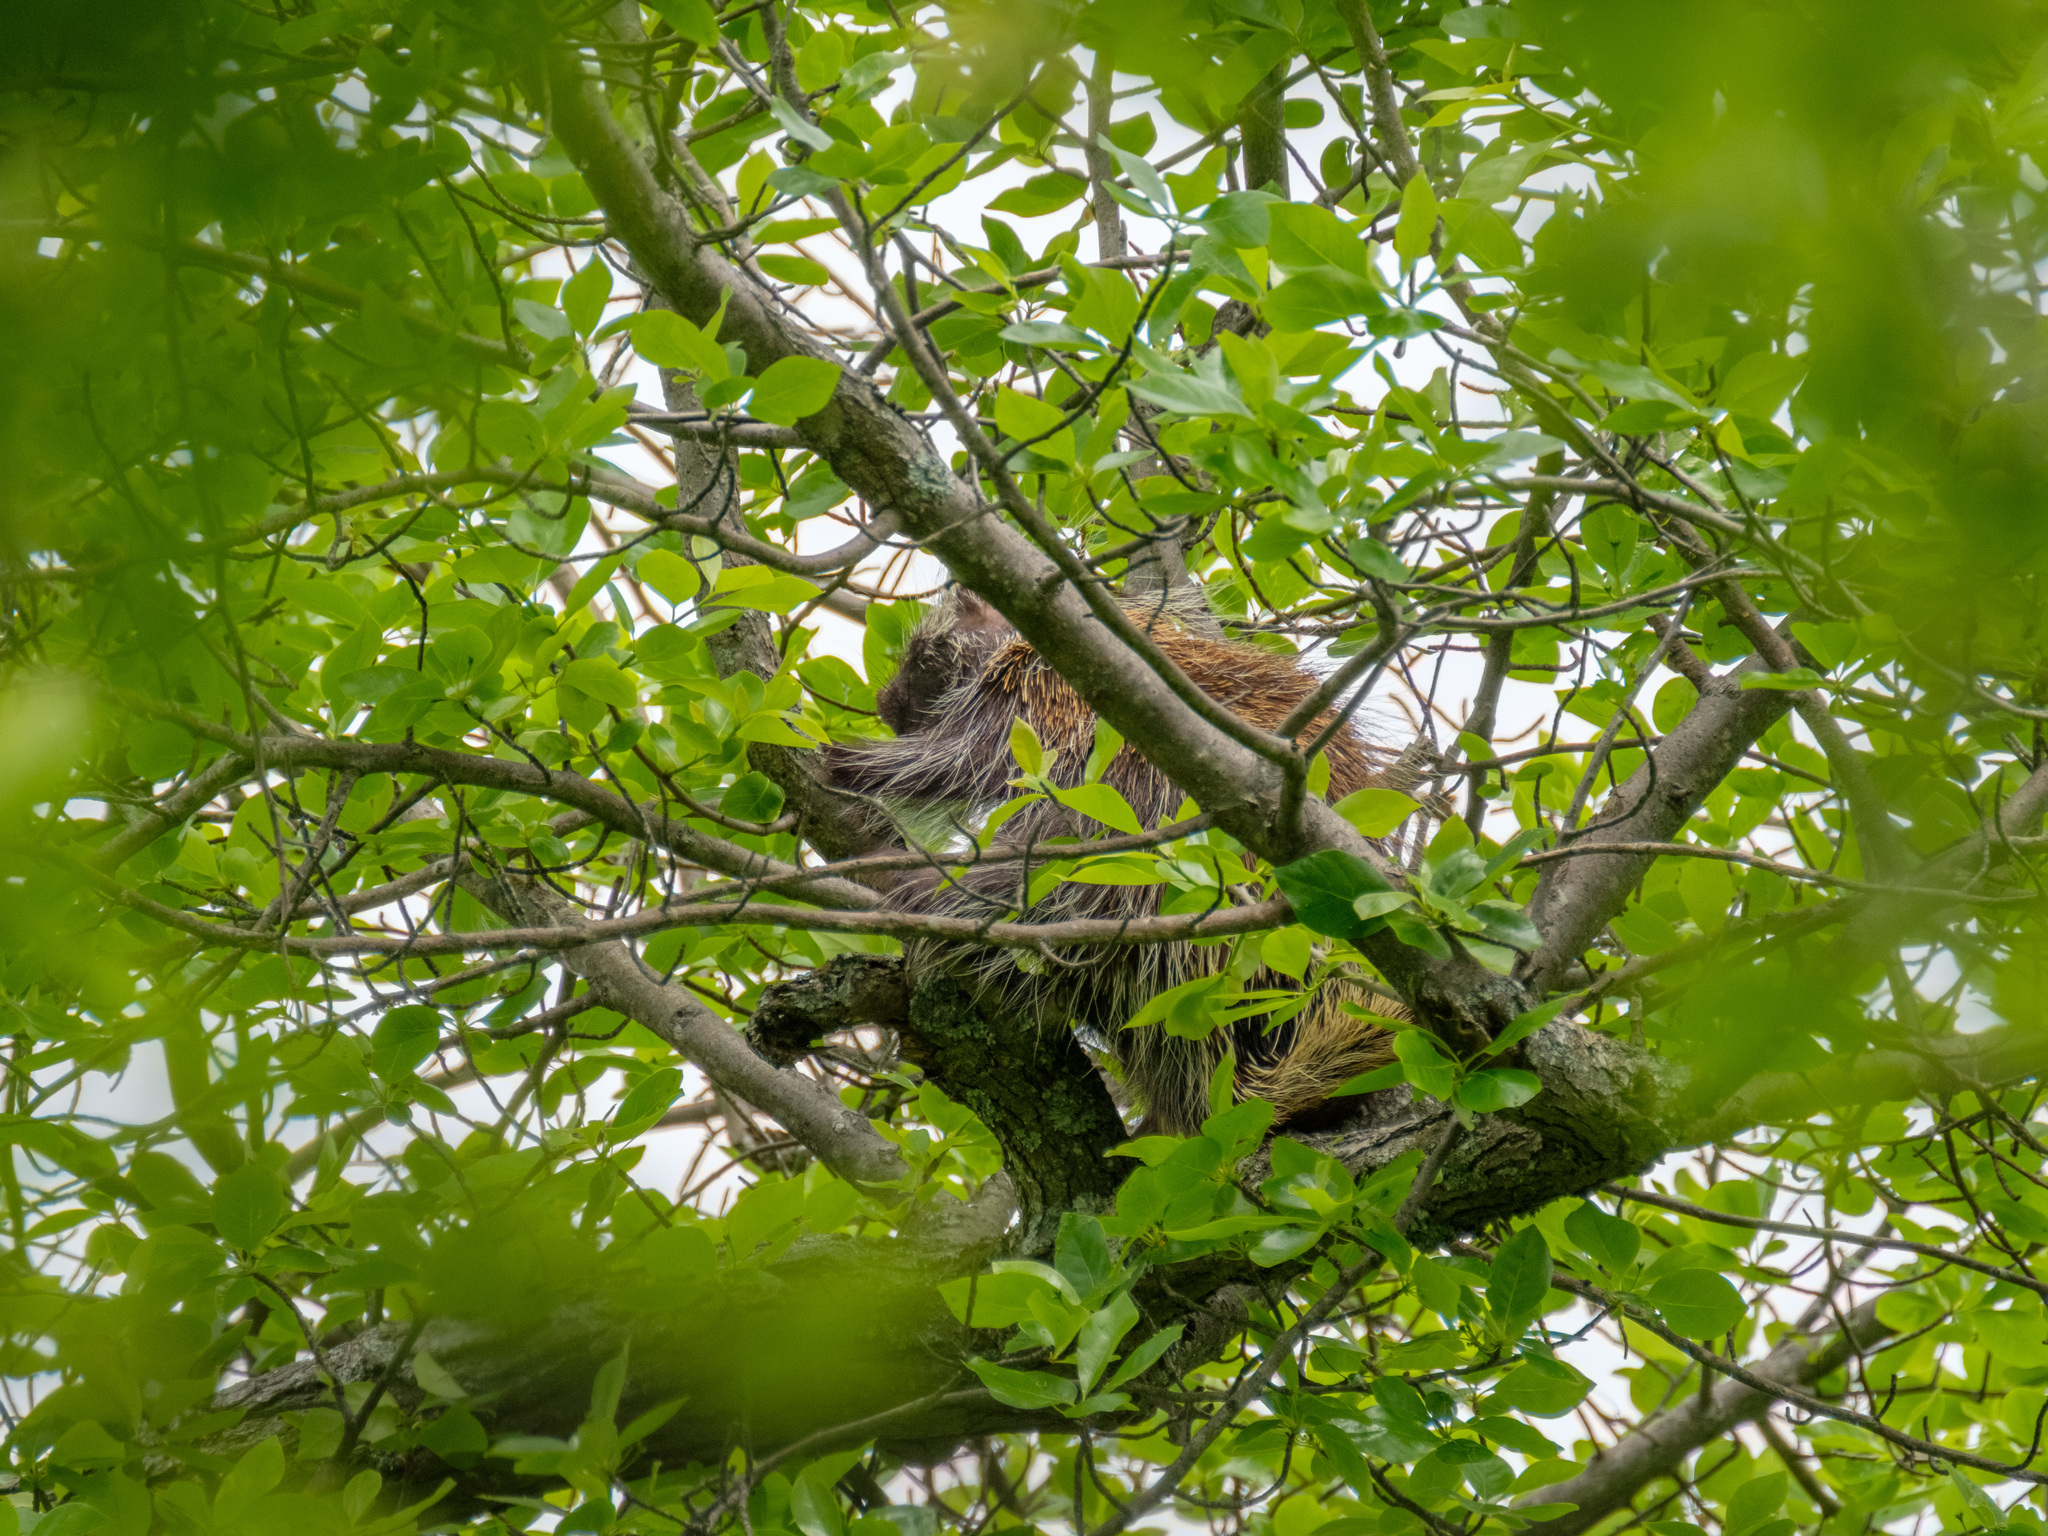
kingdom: Animalia
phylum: Chordata
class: Mammalia
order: Rodentia
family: Erethizontidae
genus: Erethizon
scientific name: Erethizon dorsatus
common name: North american porcupine
